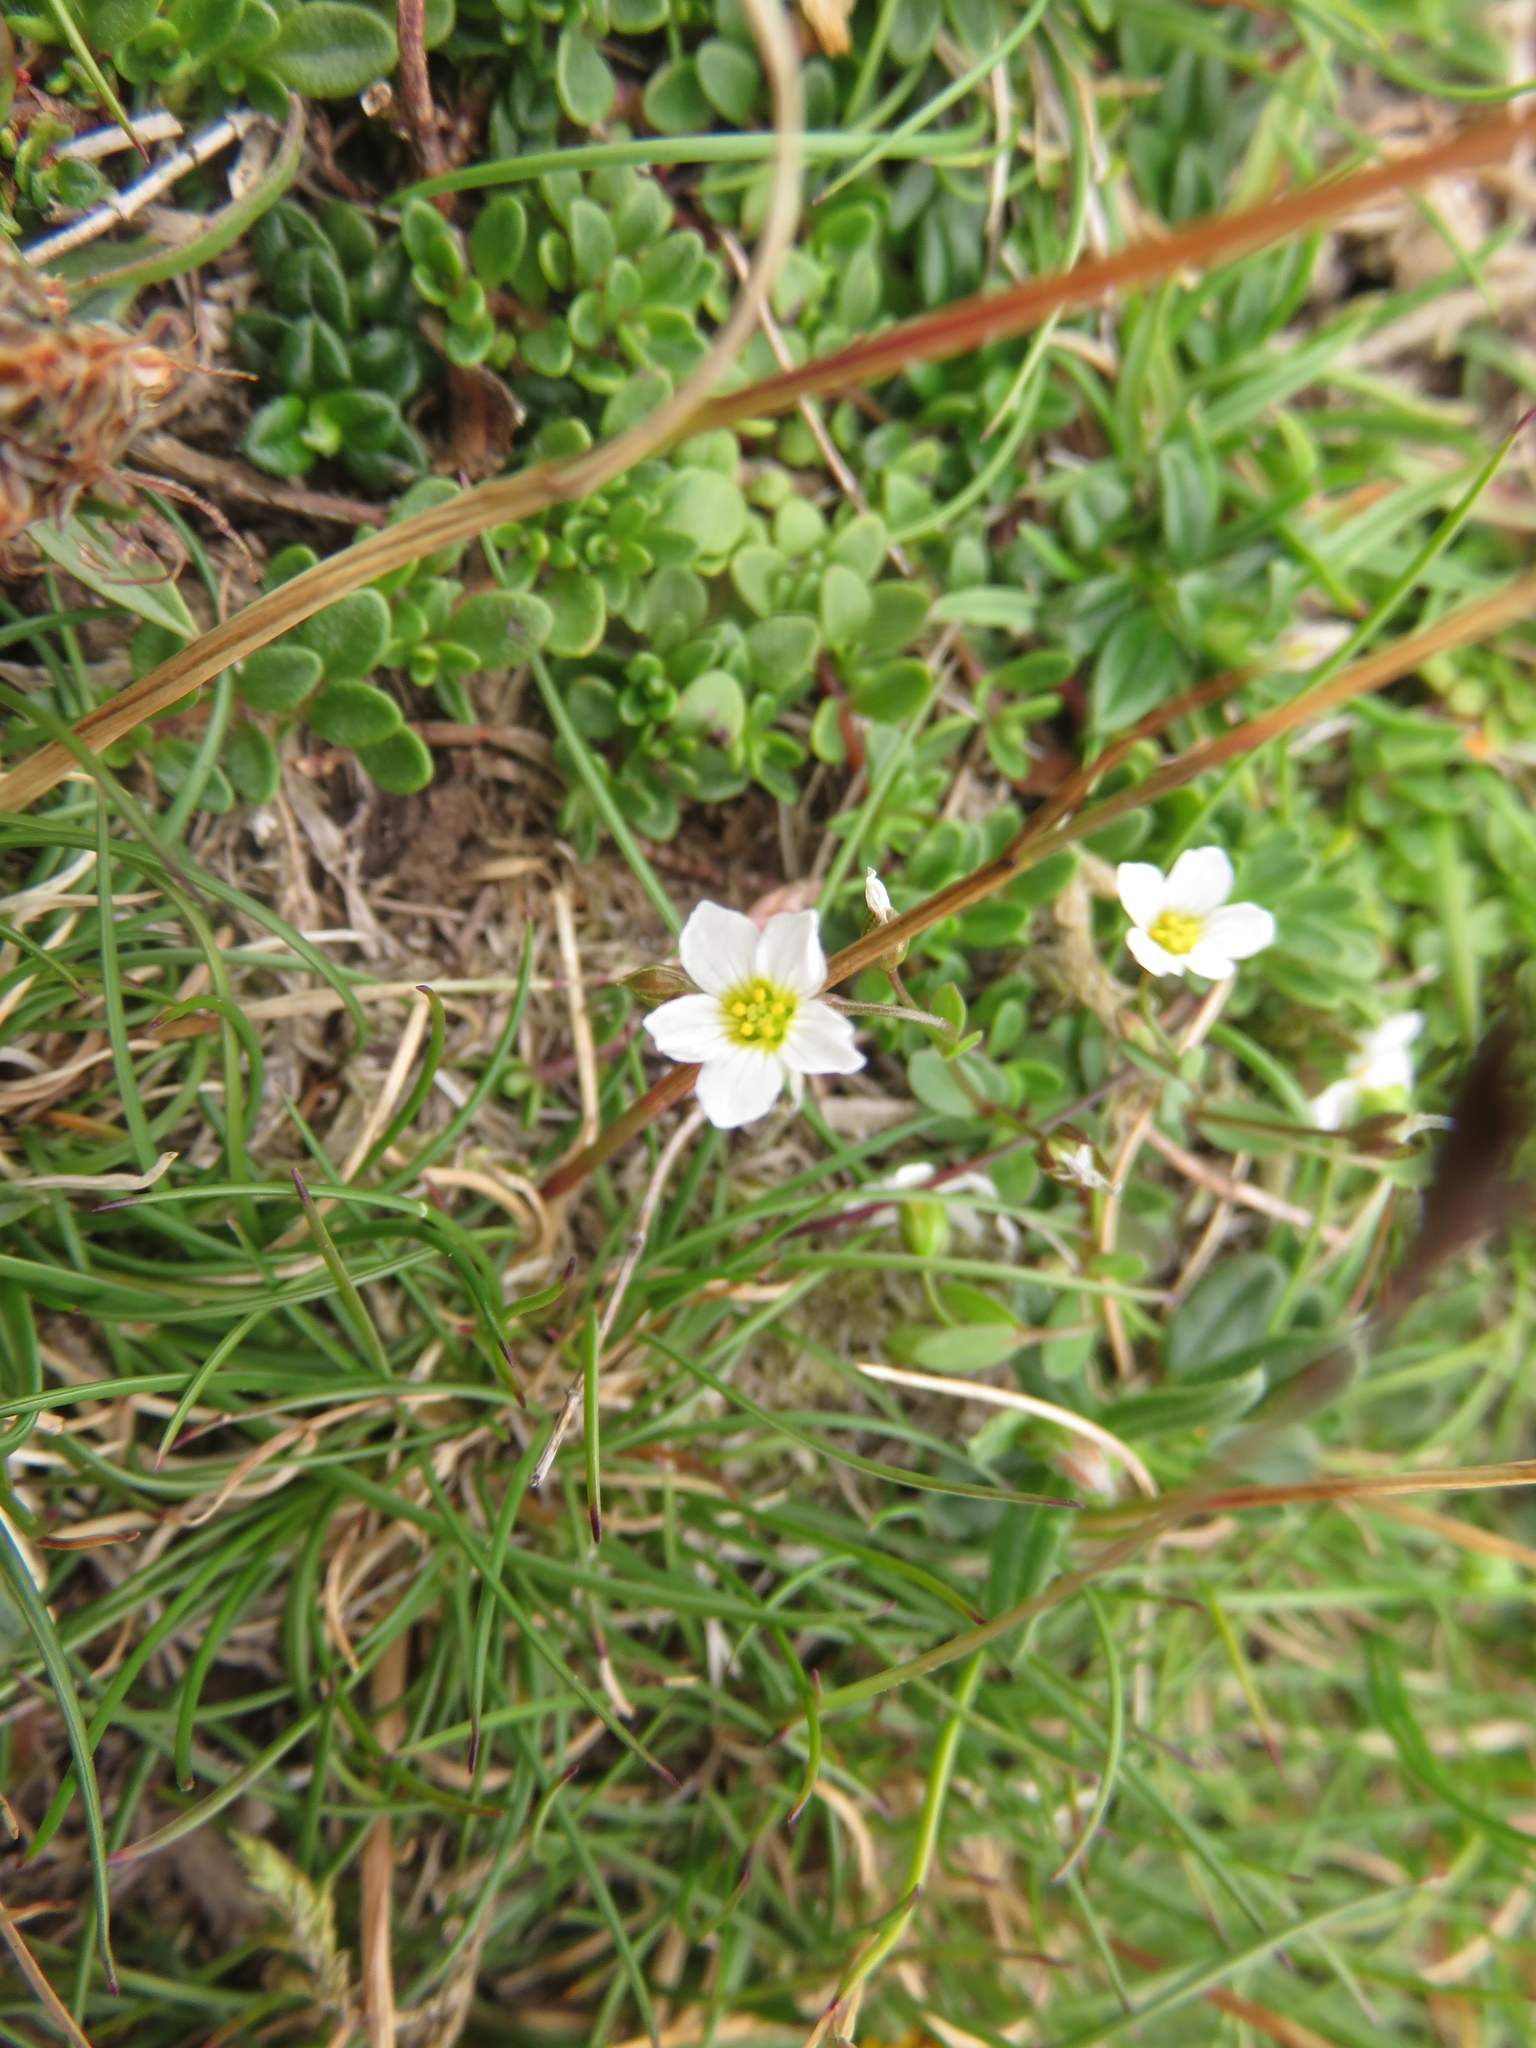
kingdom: Plantae
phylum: Tracheophyta
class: Magnoliopsida
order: Malpighiales
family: Linaceae
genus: Linum
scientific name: Linum catharticum
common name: Fairy flax
